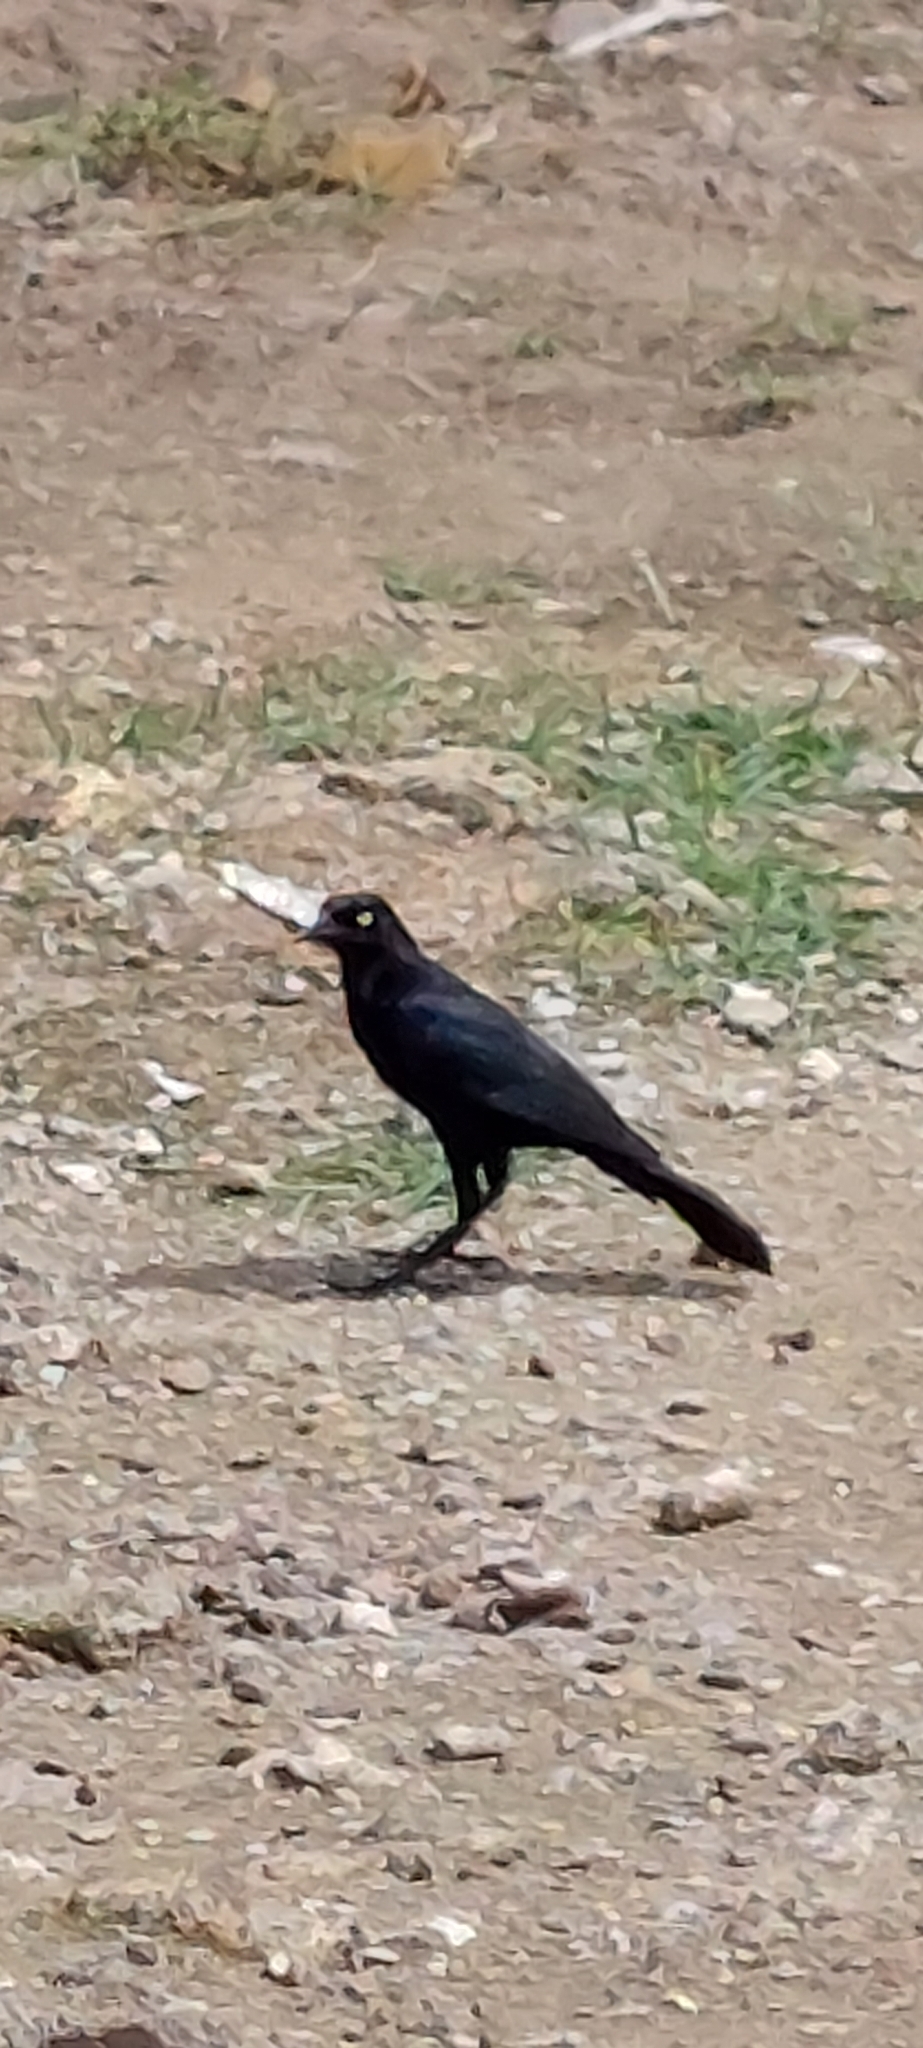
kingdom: Animalia
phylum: Chordata
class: Aves
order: Passeriformes
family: Icteridae
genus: Quiscalus
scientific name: Quiscalus lugubris
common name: Carib grackle
